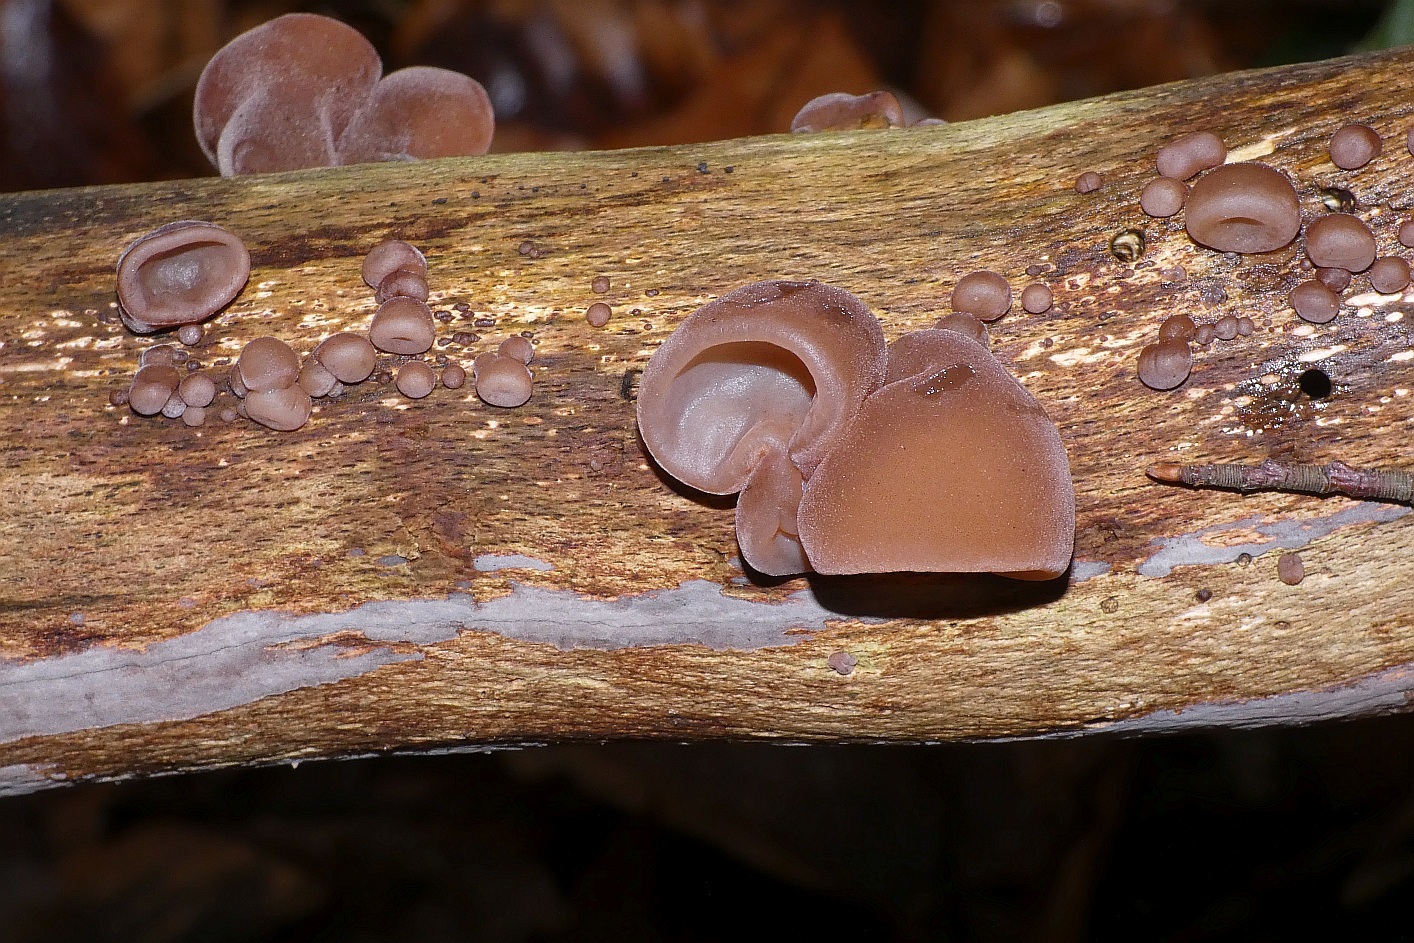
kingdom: Fungi
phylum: Basidiomycota
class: Agaricomycetes
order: Auriculariales
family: Auriculariaceae
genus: Auricularia
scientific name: Auricularia auricula-judae
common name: Jelly ear
